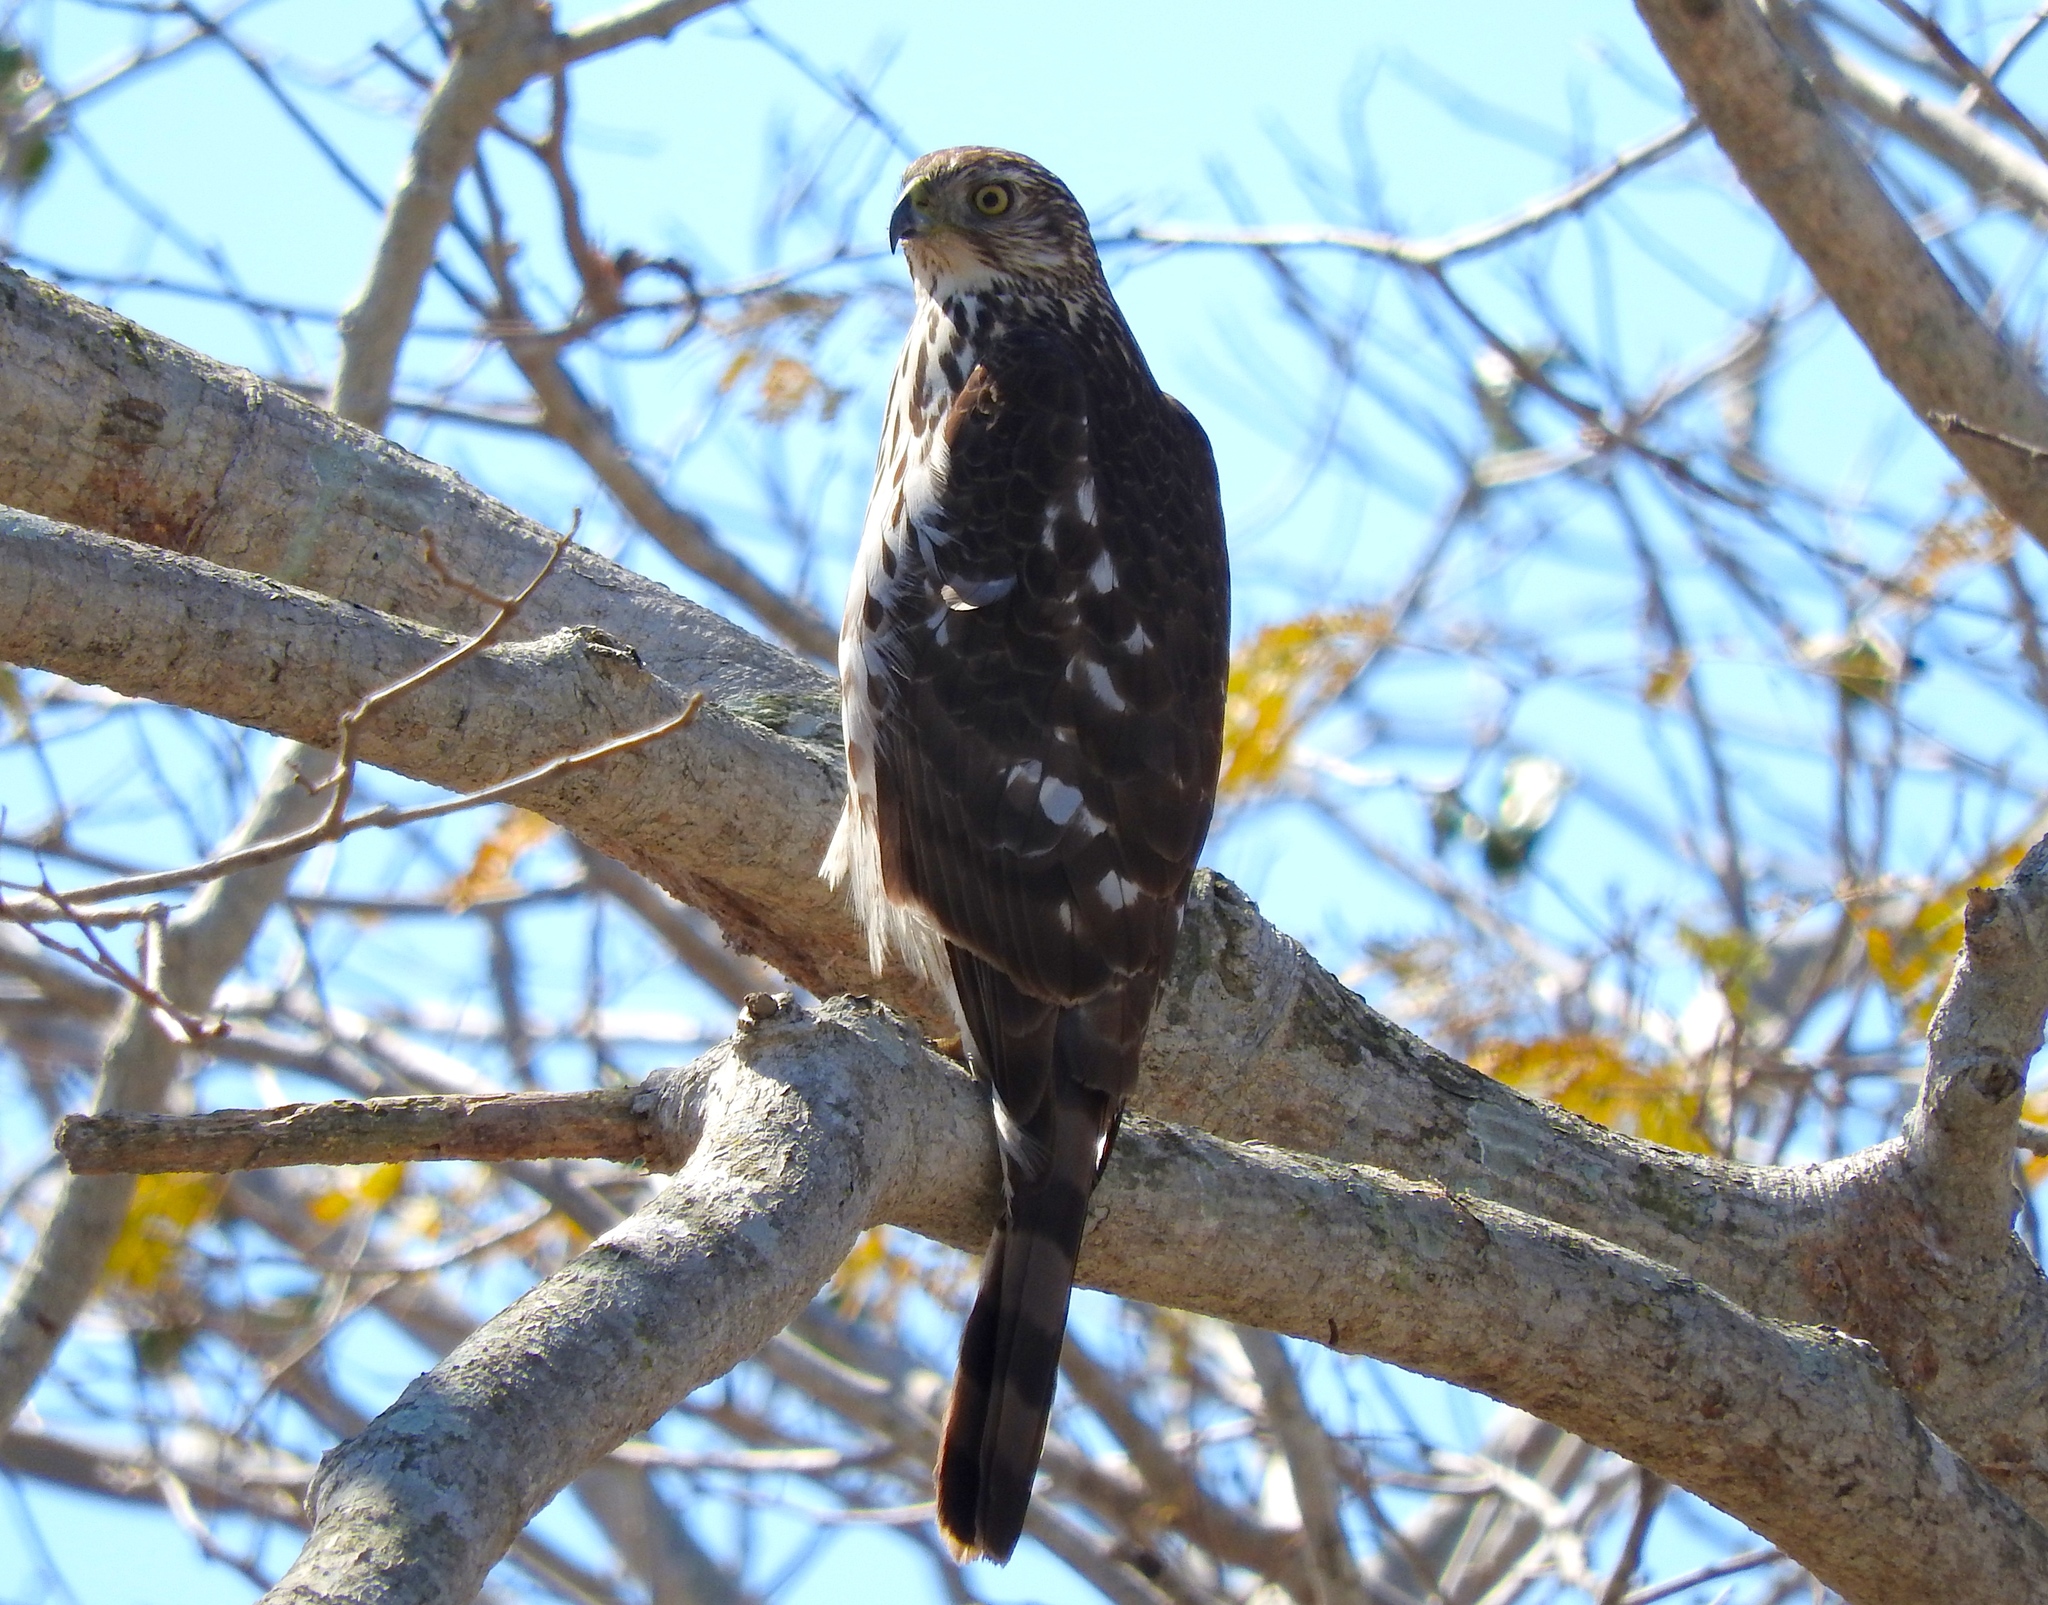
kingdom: Animalia
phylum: Chordata
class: Aves
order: Accipitriformes
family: Accipitridae
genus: Accipiter
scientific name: Accipiter cooperii
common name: Cooper's hawk
